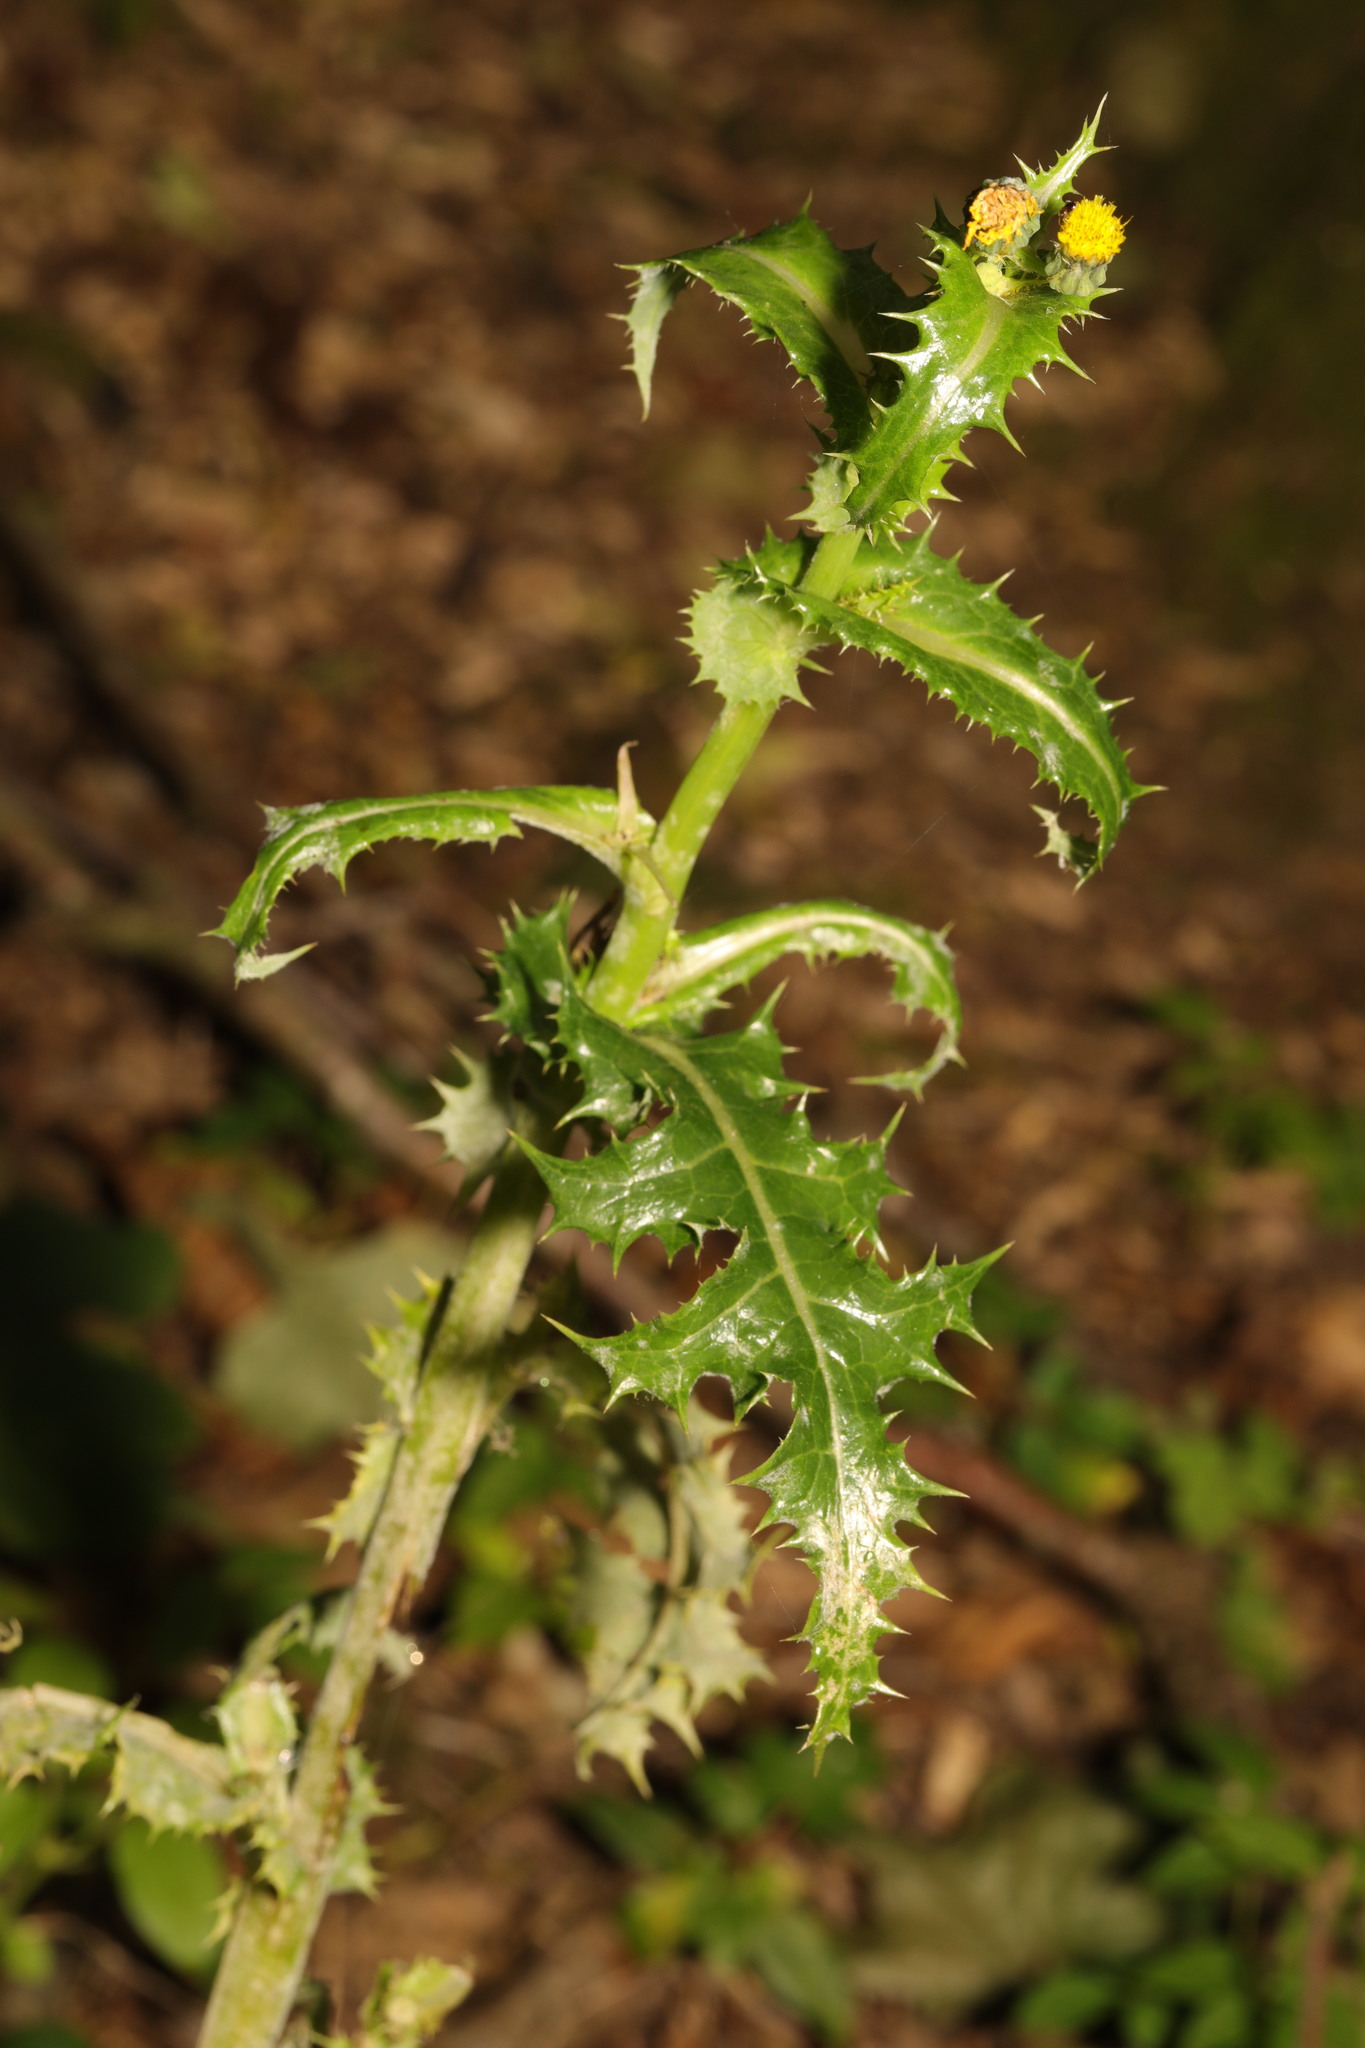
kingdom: Plantae
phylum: Tracheophyta
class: Magnoliopsida
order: Asterales
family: Asteraceae
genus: Sonchus
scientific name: Sonchus asper
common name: Prickly sow-thistle
